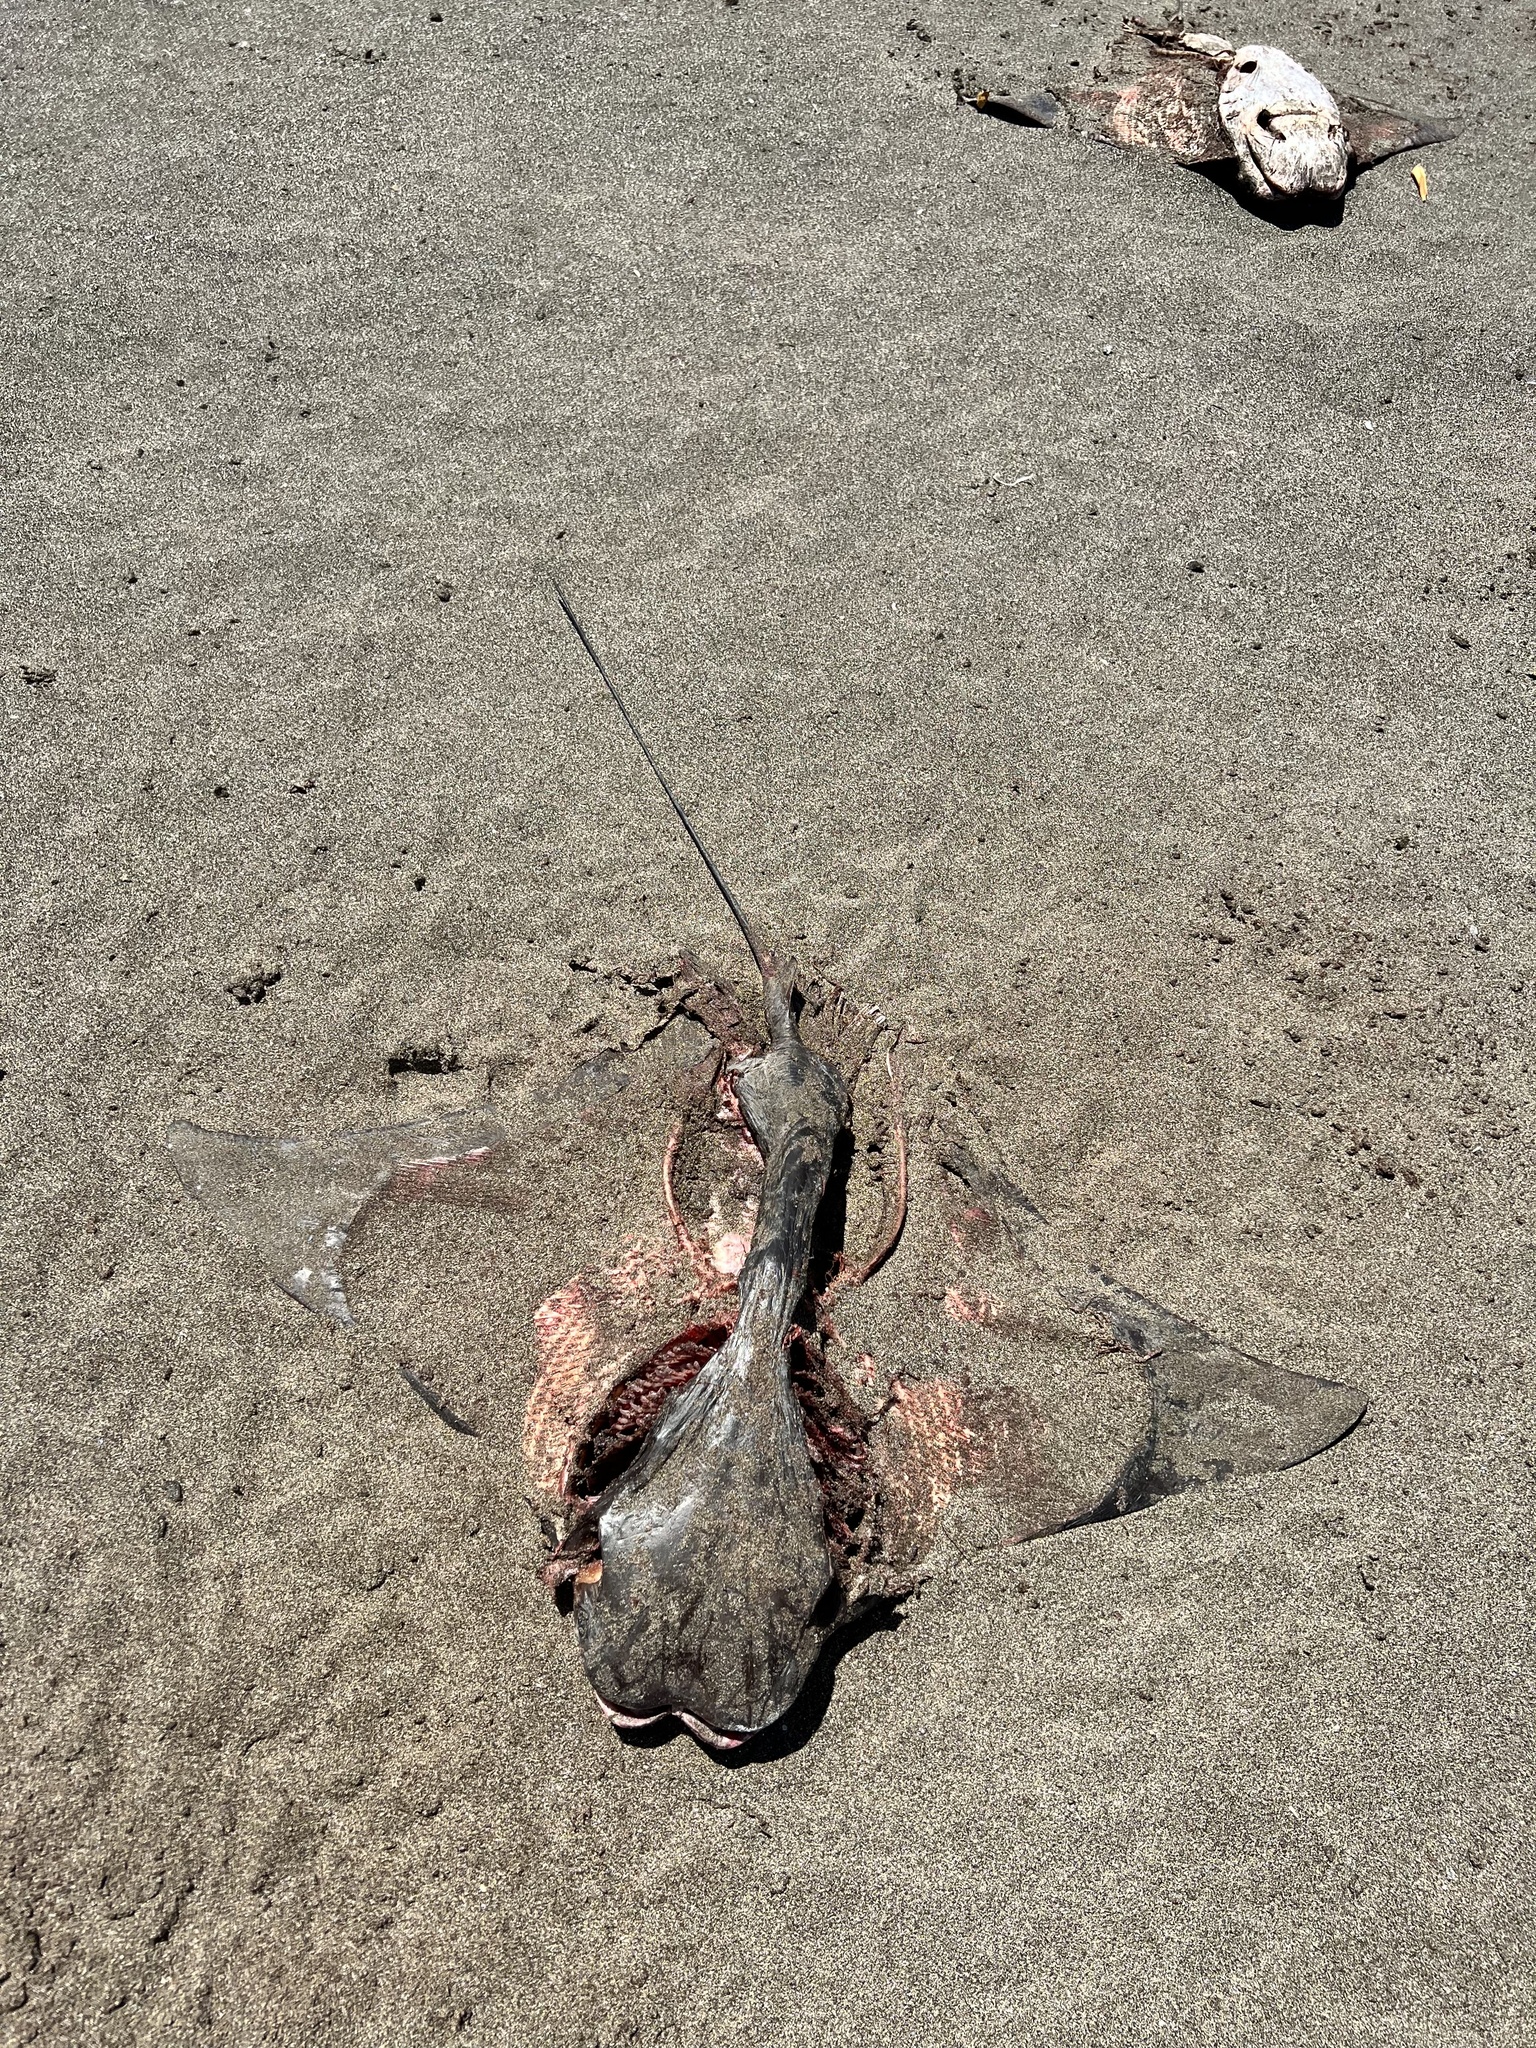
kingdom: Animalia
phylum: Chordata
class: Elasmobranchii
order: Myliobatiformes
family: Myliobatidae
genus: Rhinoptera
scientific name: Rhinoptera steindachneri
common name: Golden cownose ray
